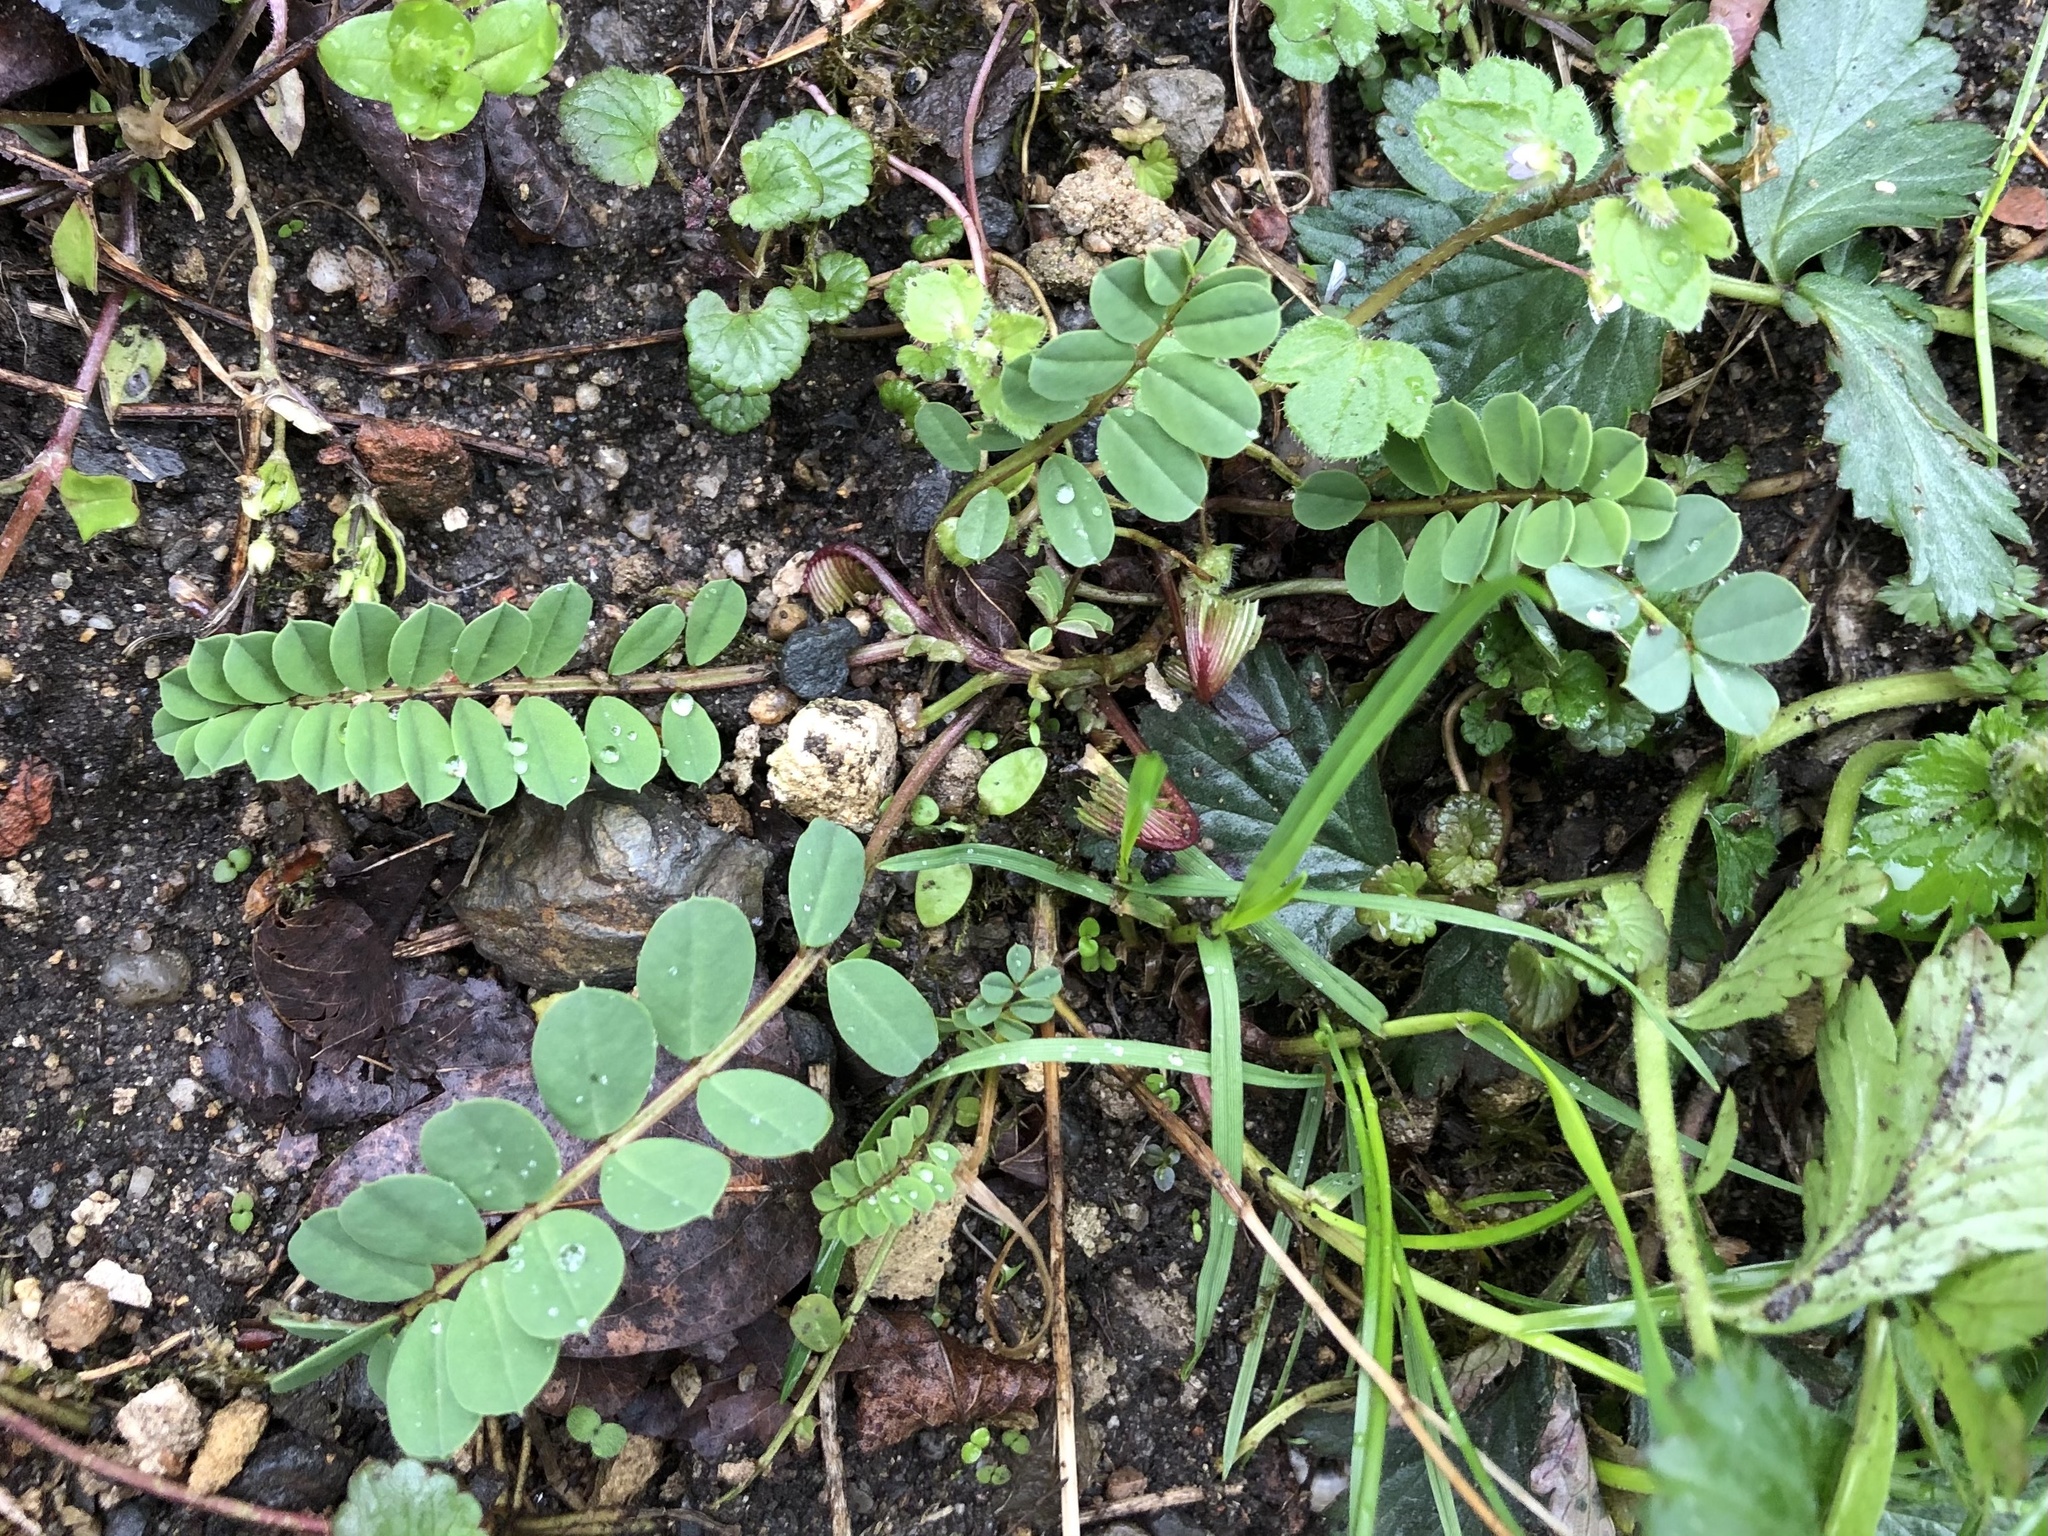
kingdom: Plantae
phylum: Tracheophyta
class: Magnoliopsida
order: Fabales
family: Fabaceae
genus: Coronilla
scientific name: Coronilla varia
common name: Crownvetch
